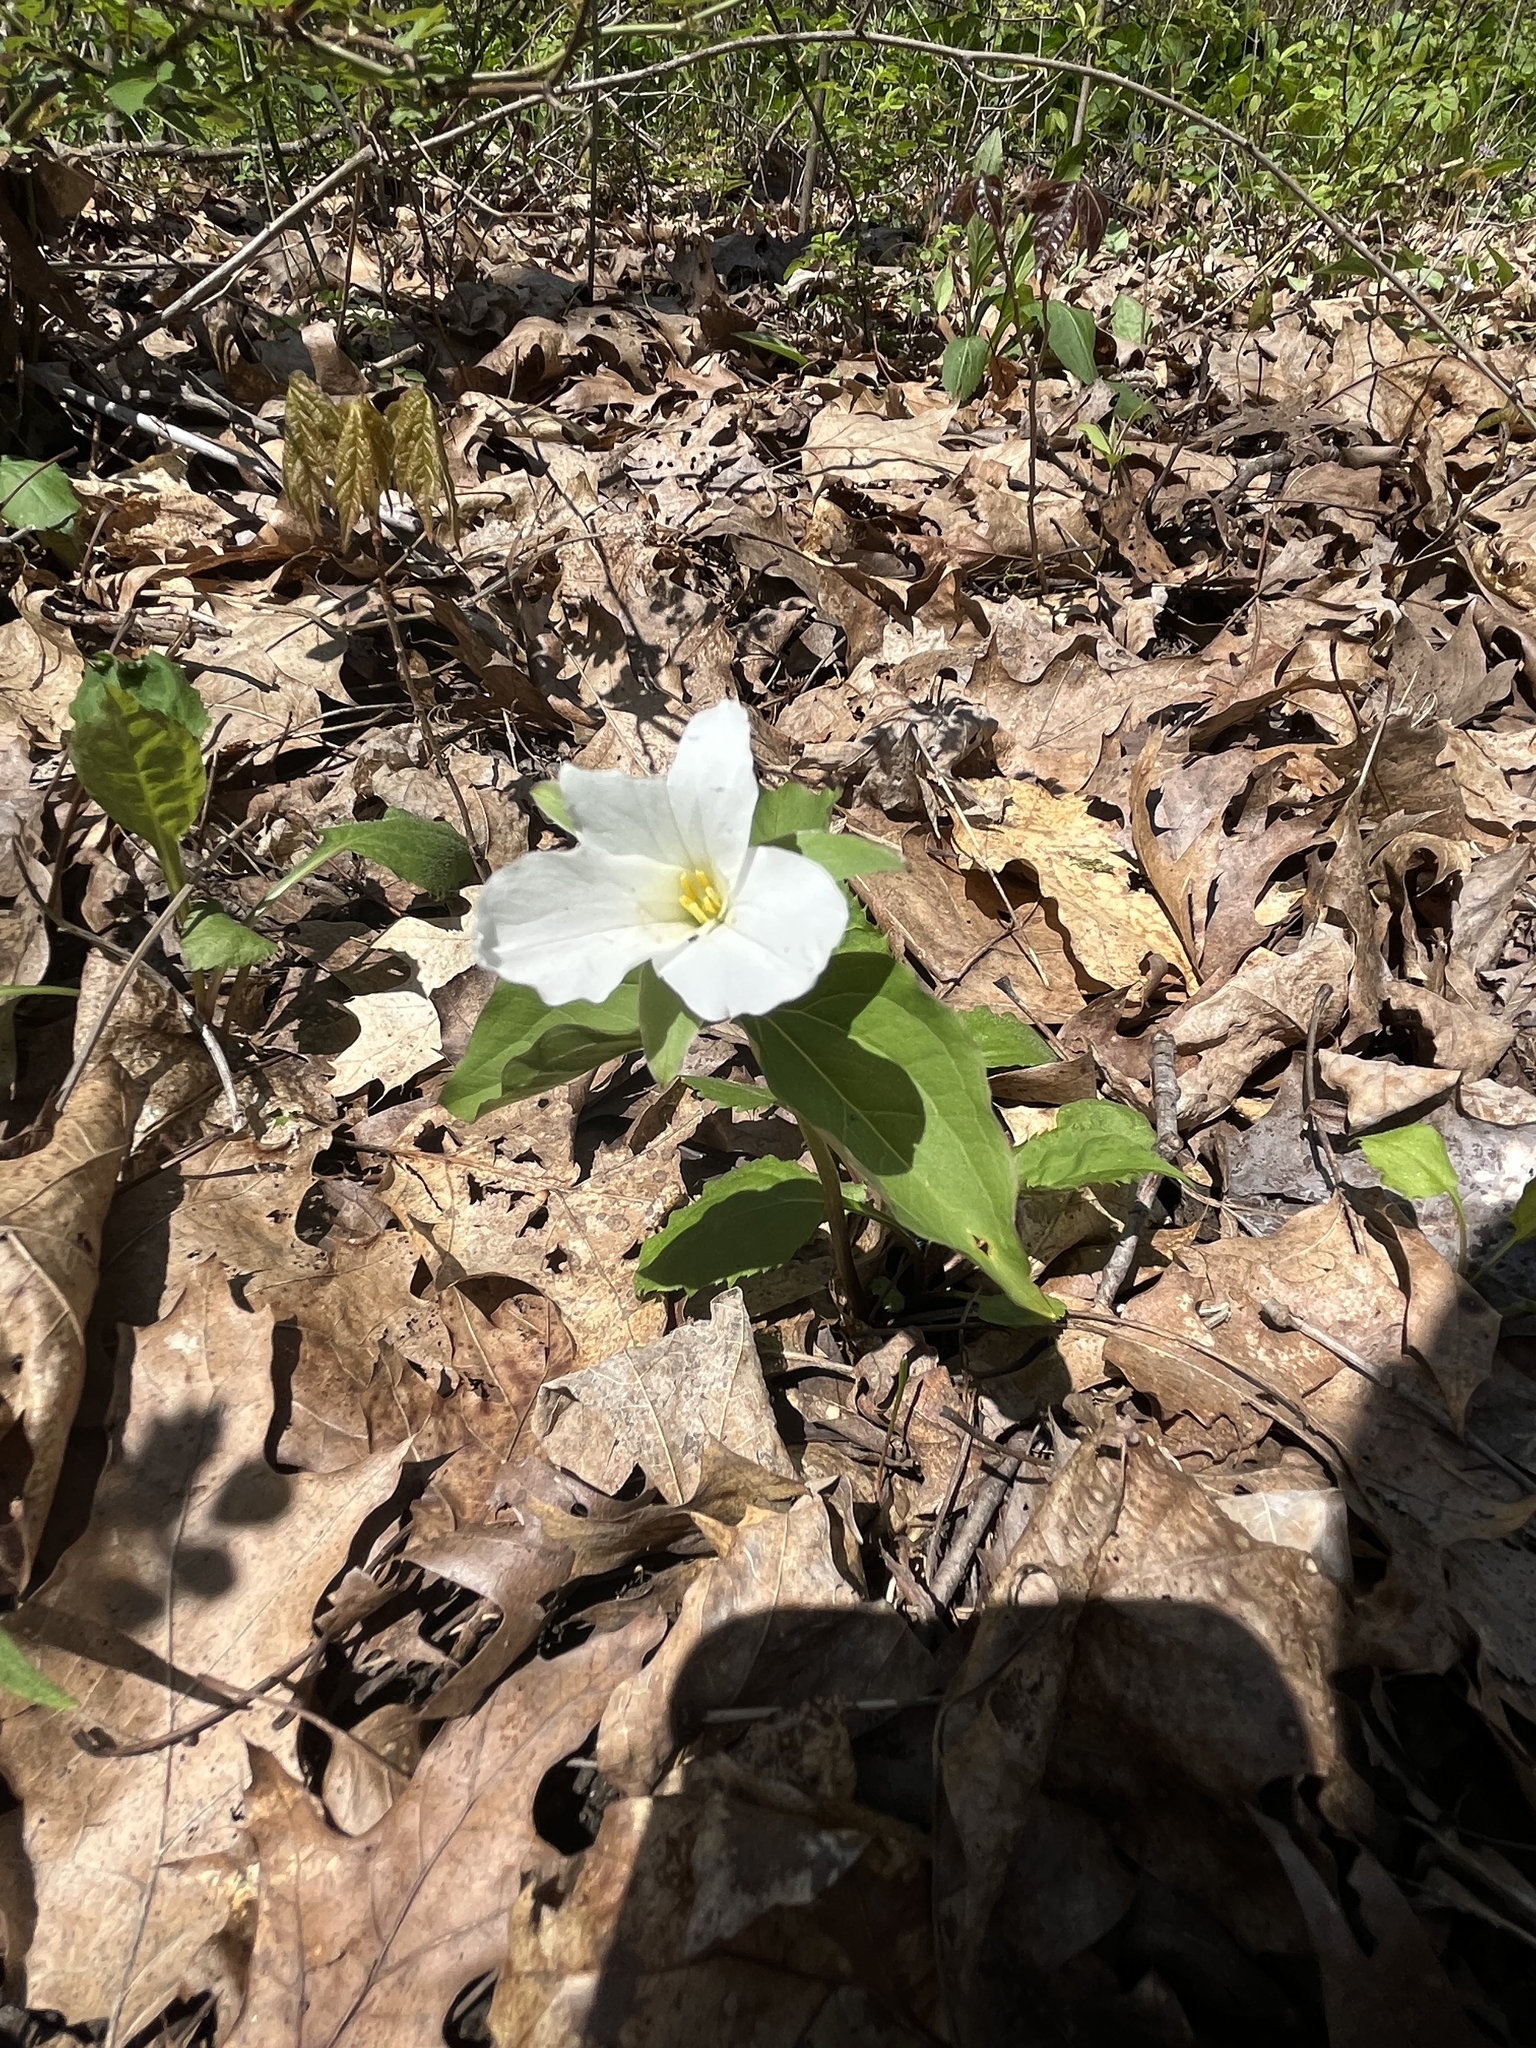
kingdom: Plantae
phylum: Tracheophyta
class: Liliopsida
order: Liliales
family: Melanthiaceae
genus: Trillium
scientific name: Trillium grandiflorum
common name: Great white trillium
